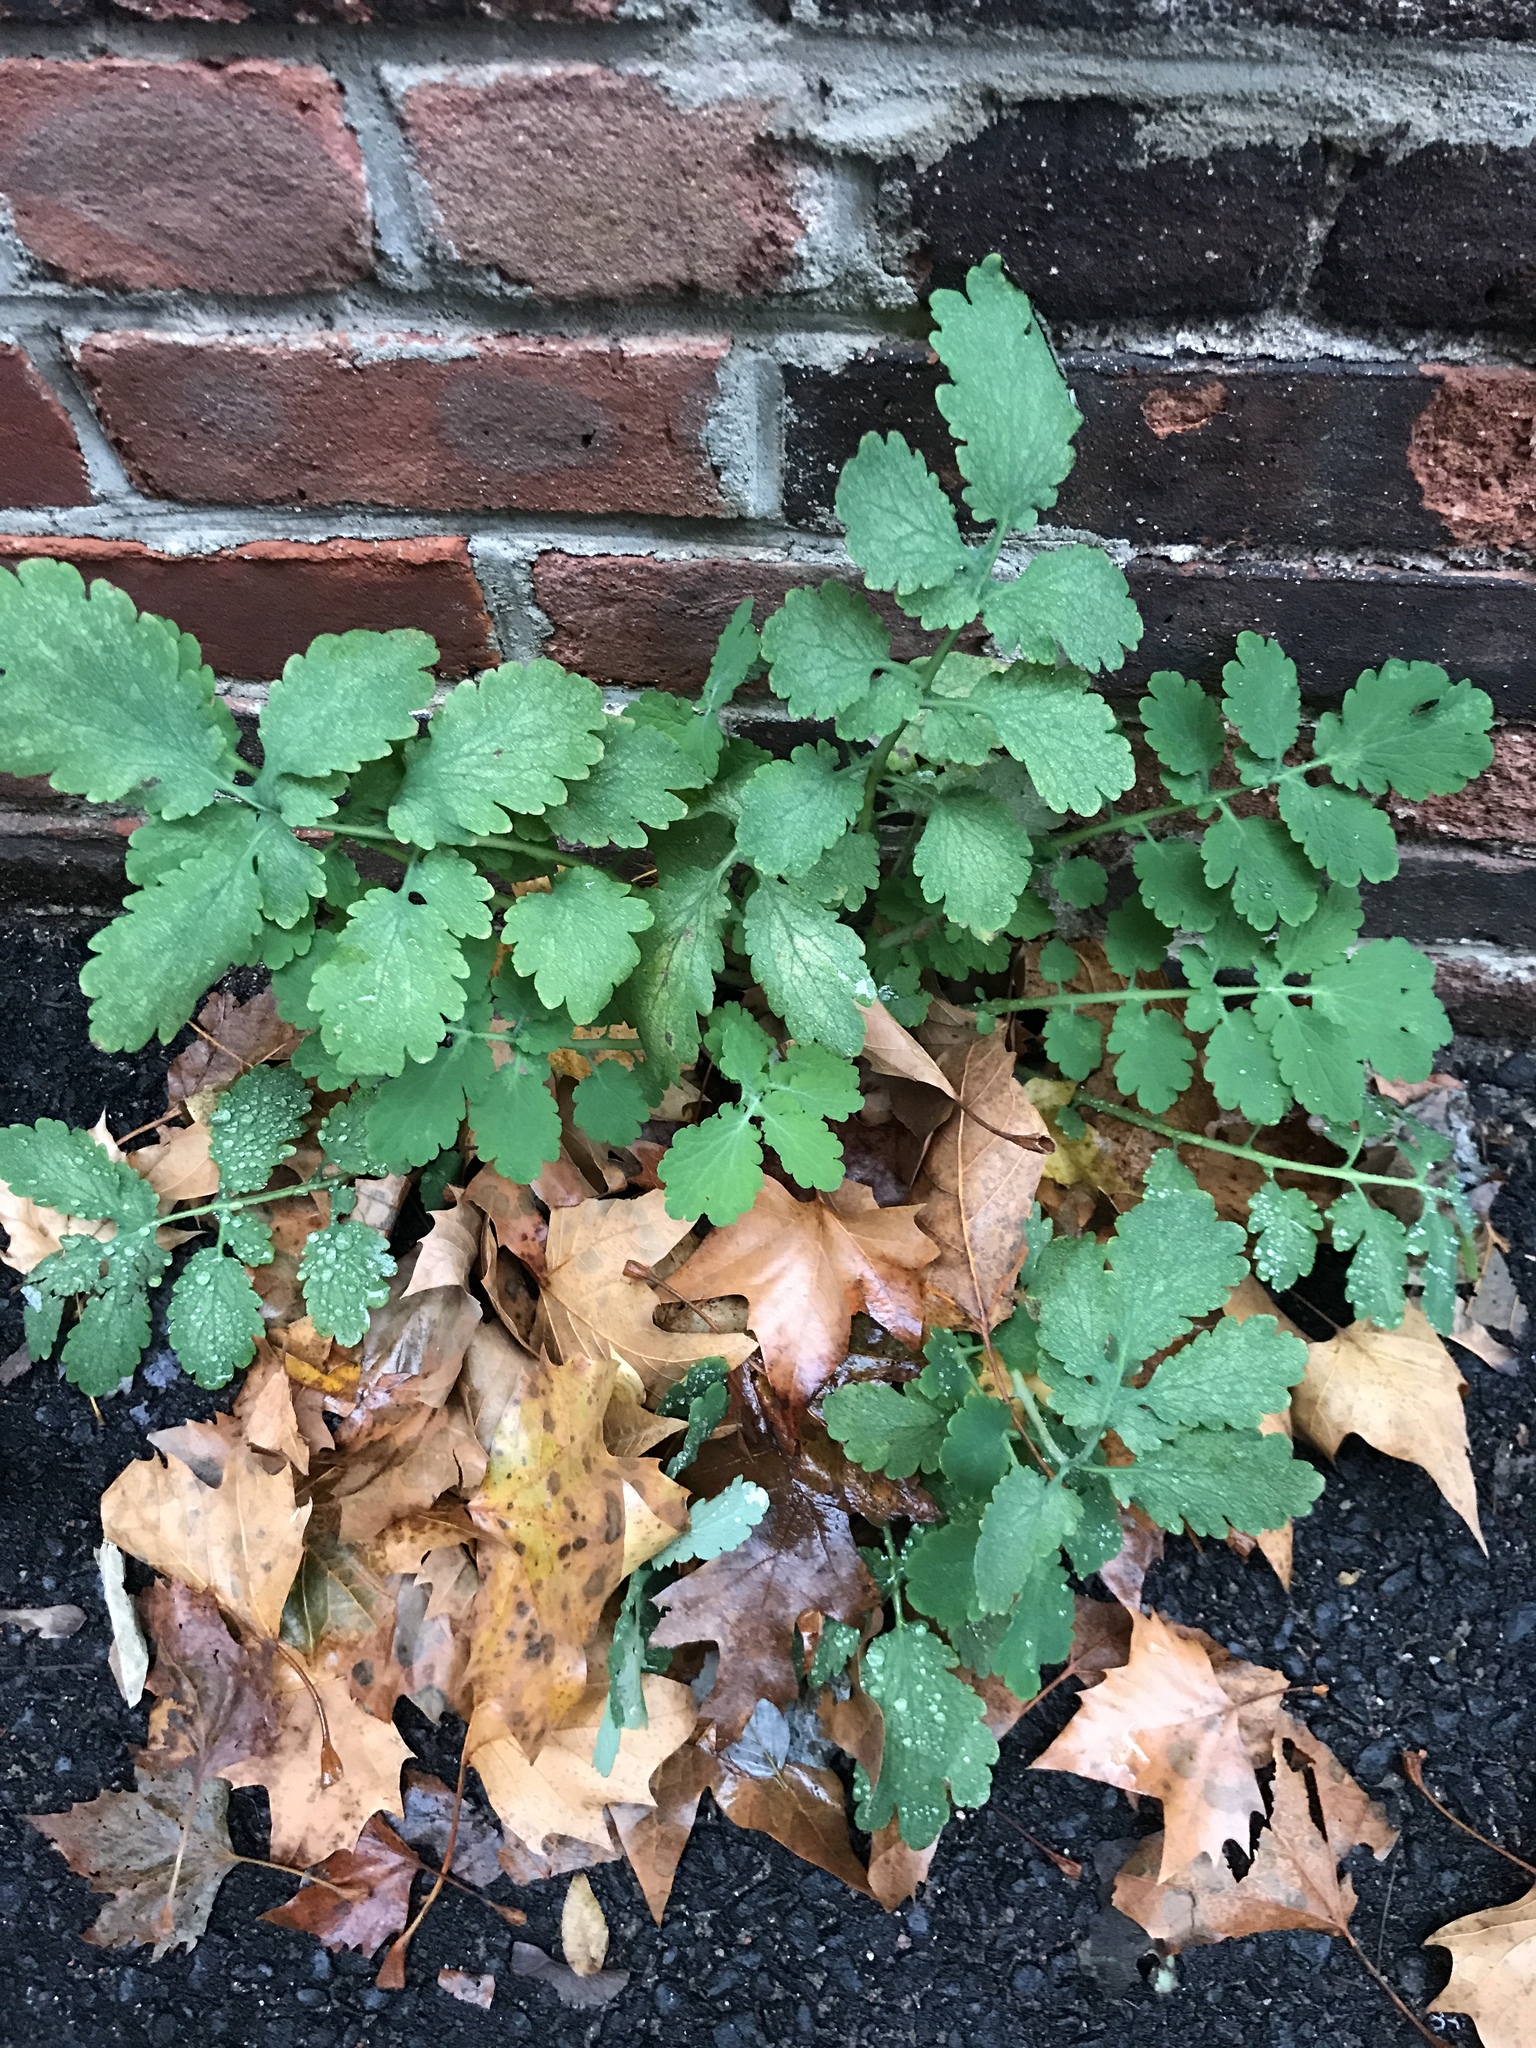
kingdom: Plantae
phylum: Tracheophyta
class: Magnoliopsida
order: Ranunculales
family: Papaveraceae
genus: Chelidonium
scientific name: Chelidonium majus
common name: Greater celandine
